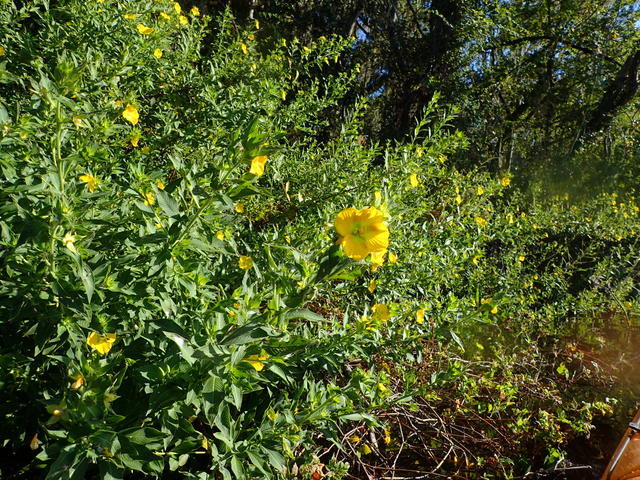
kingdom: Plantae
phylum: Tracheophyta
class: Magnoliopsida
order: Myrtales
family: Onagraceae
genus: Ludwigia
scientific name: Ludwigia peruviana
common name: Peruvian primrose-willow
